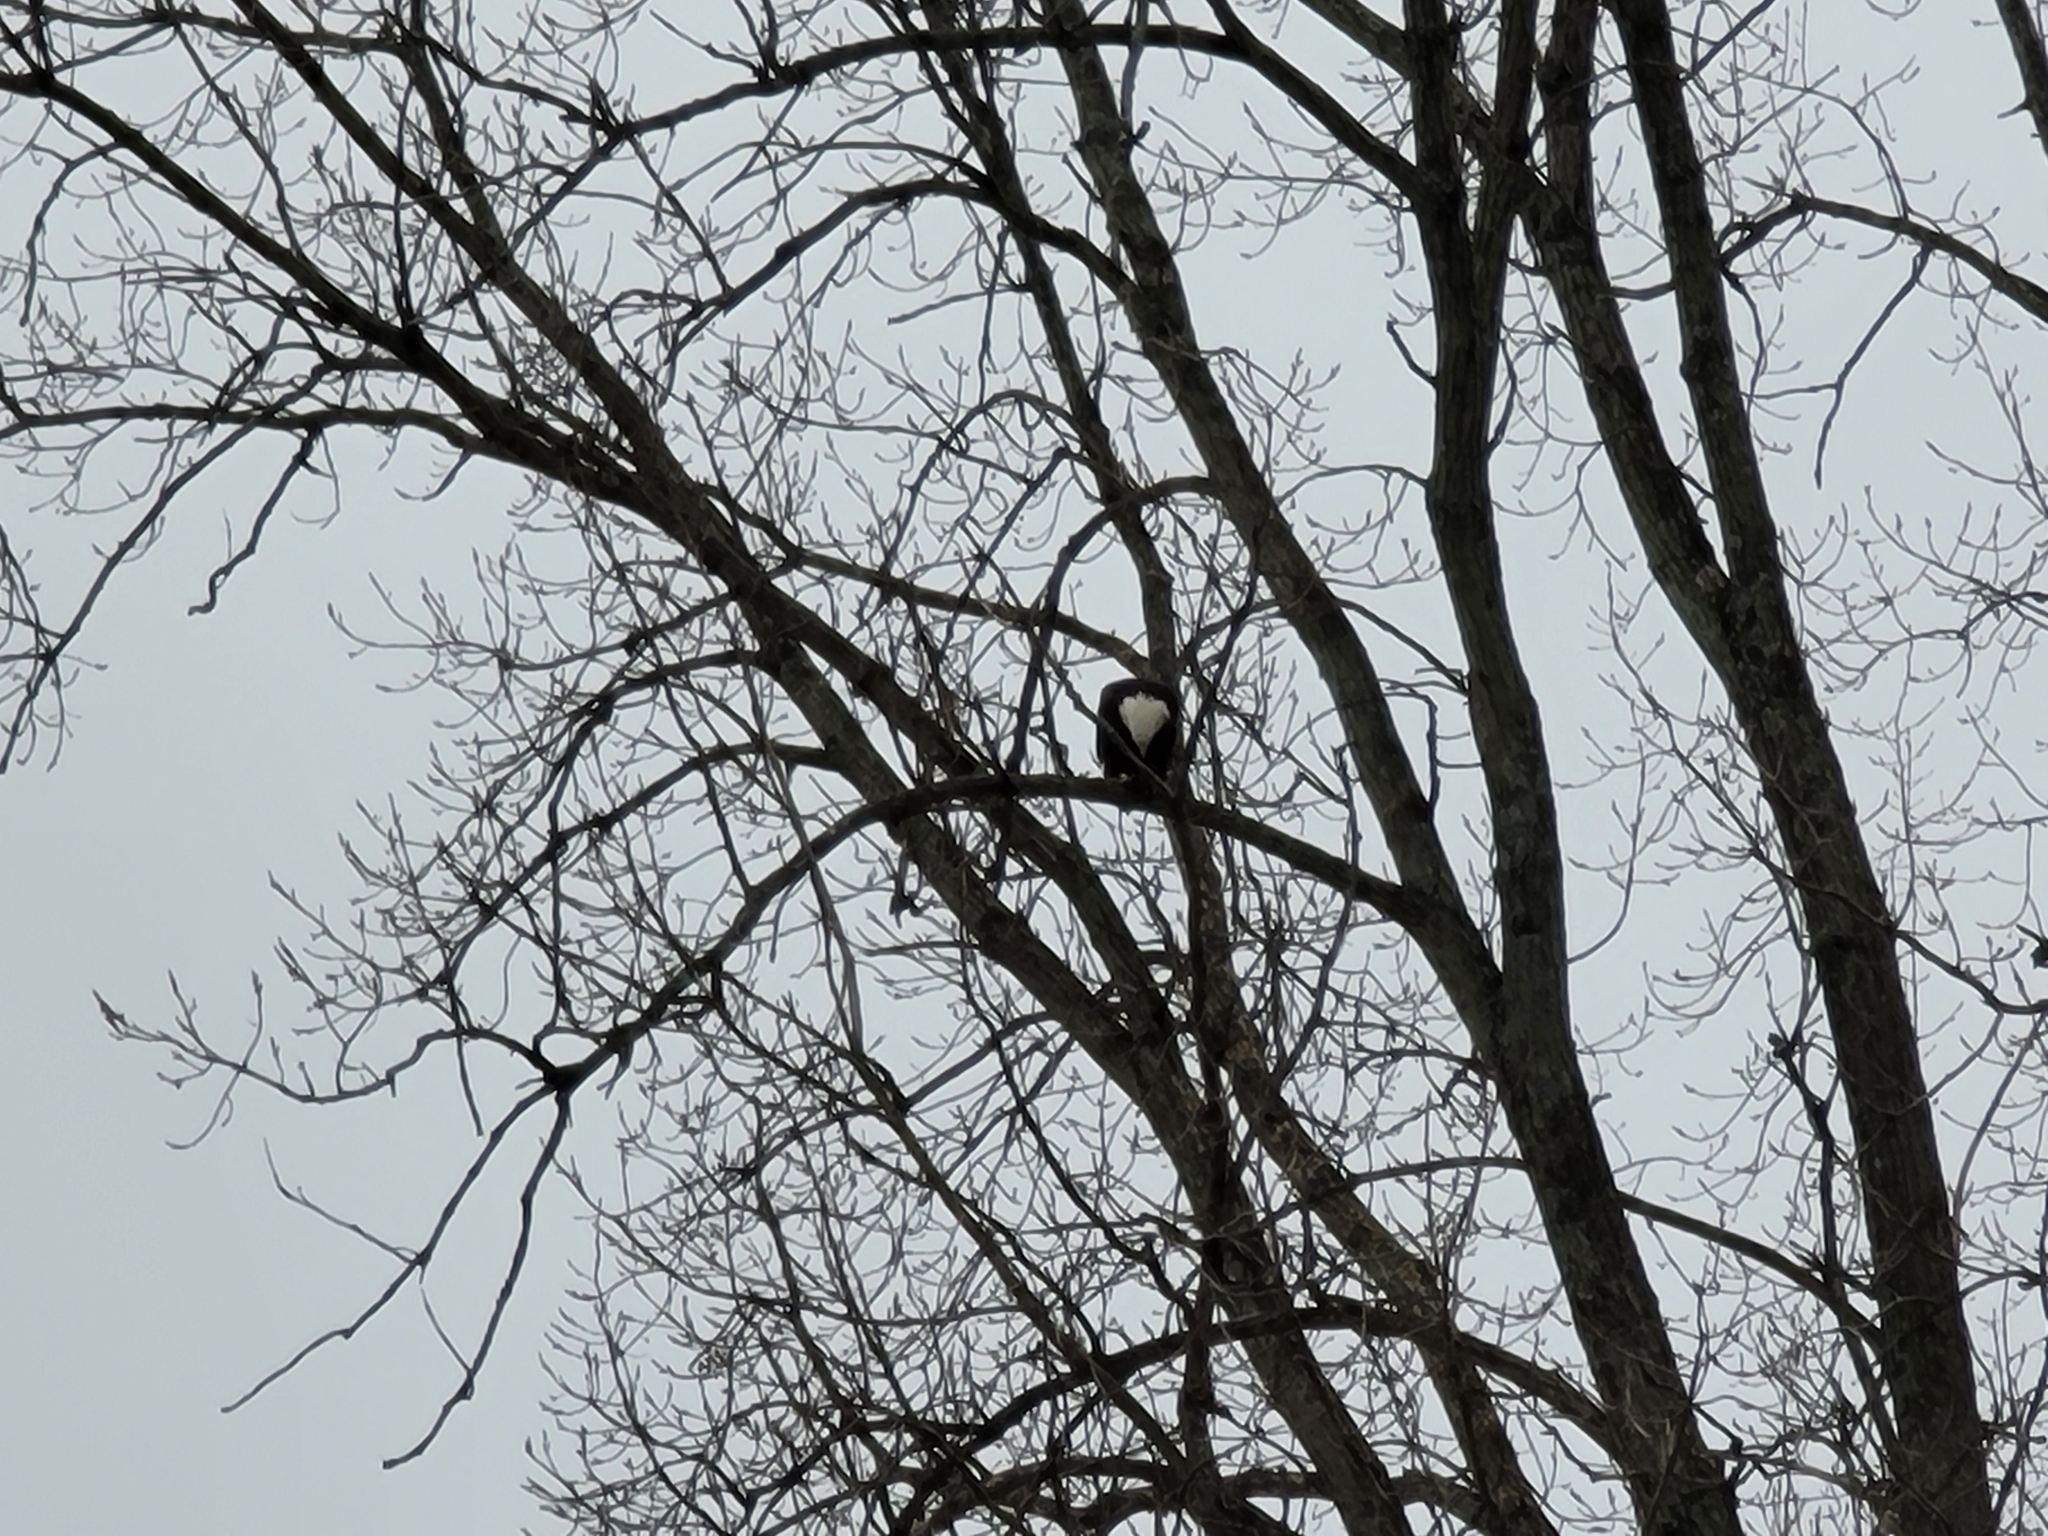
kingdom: Animalia
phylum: Chordata
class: Aves
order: Accipitriformes
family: Accipitridae
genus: Haliaeetus
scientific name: Haliaeetus leucocephalus
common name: Bald eagle
